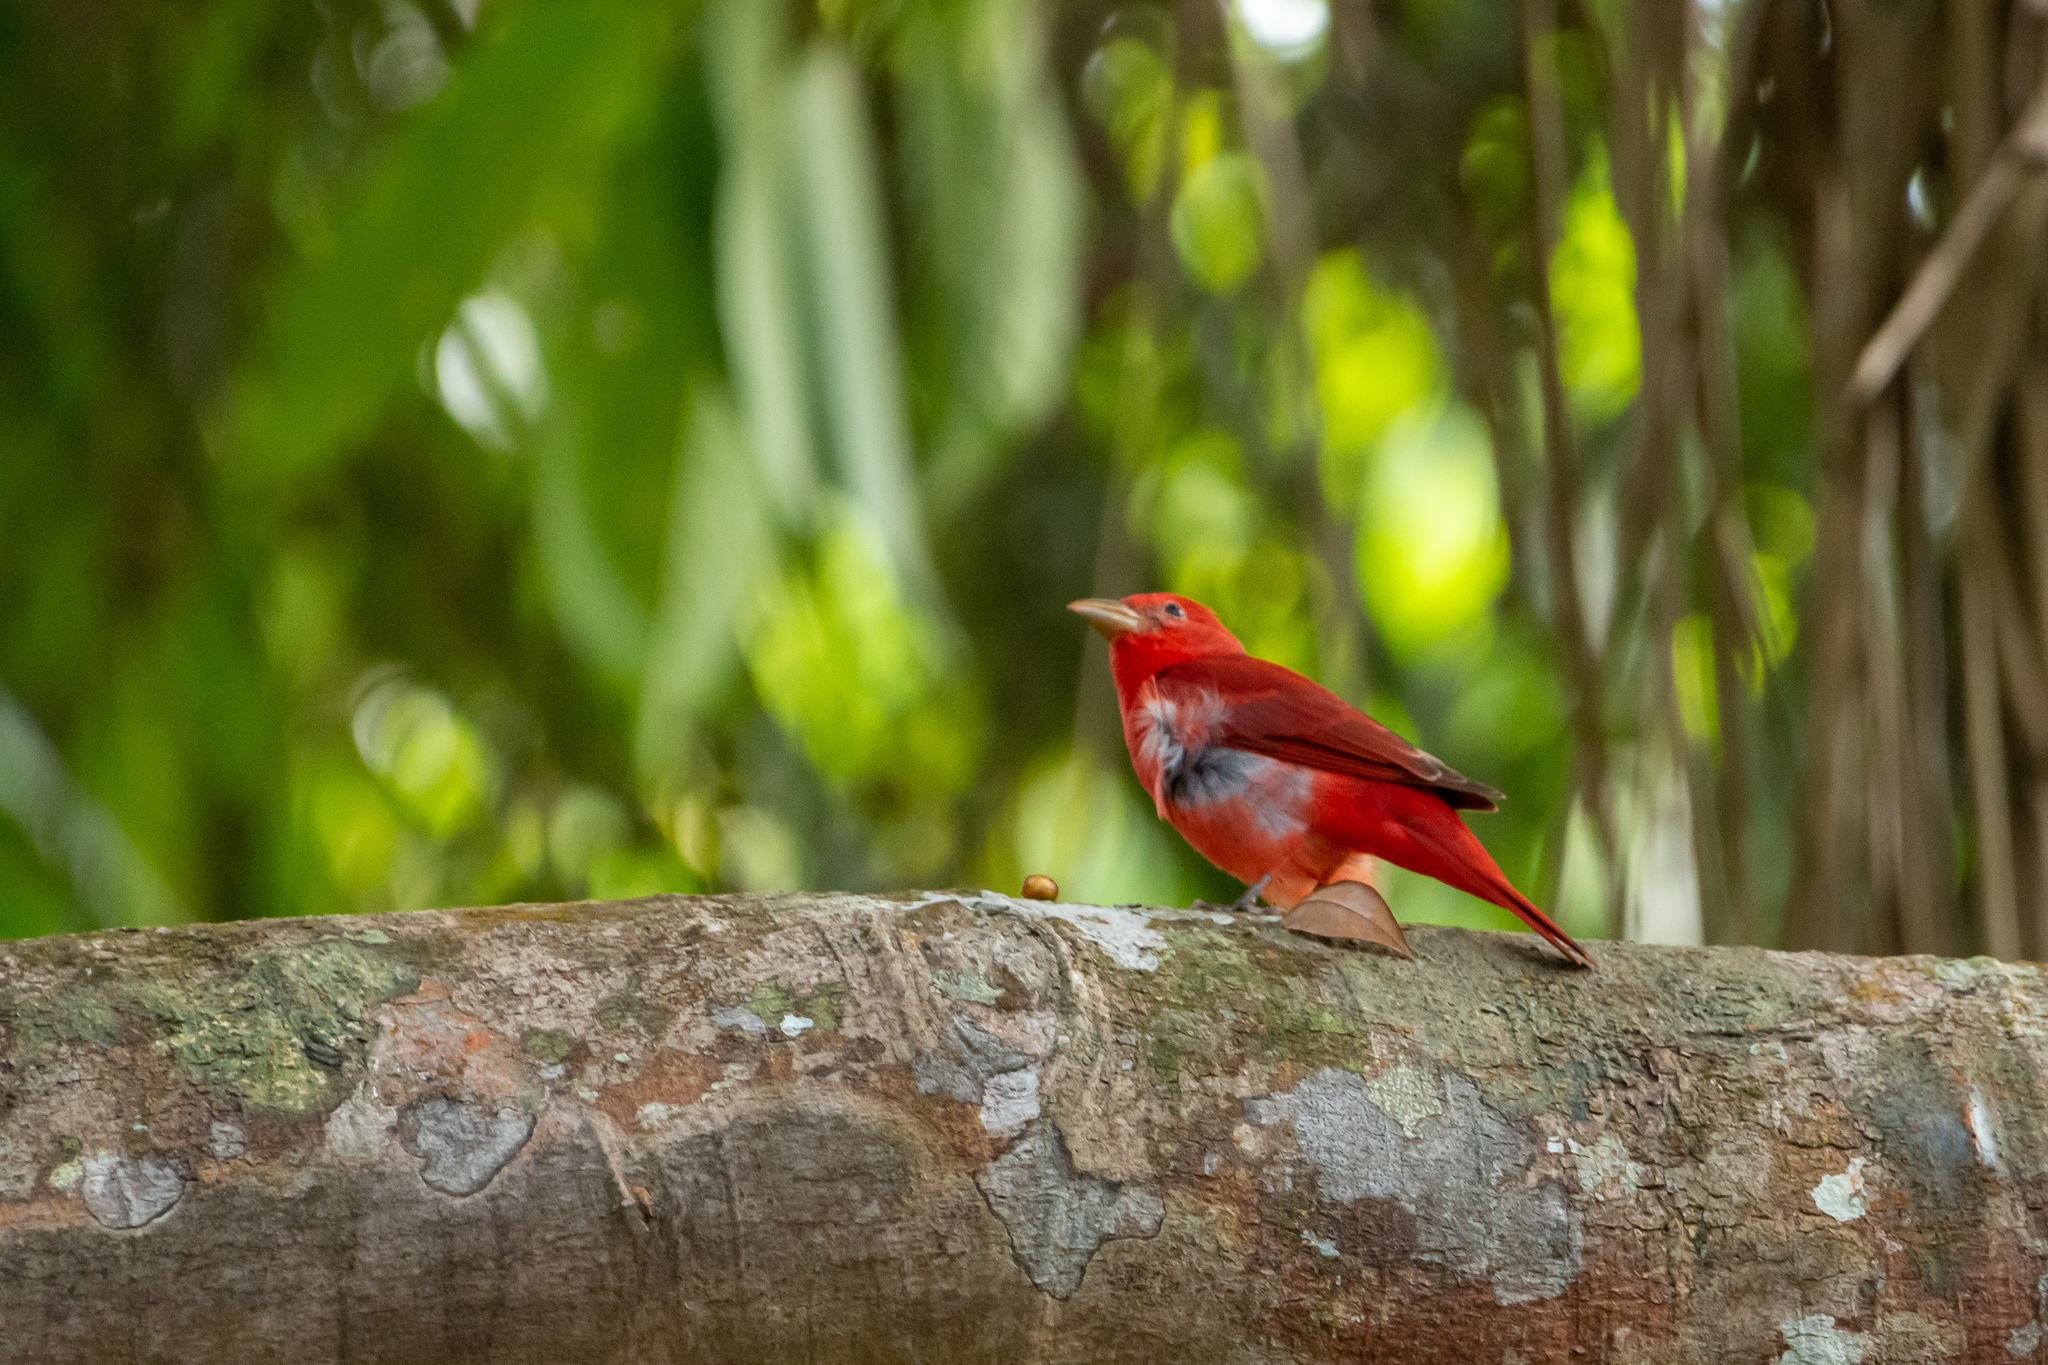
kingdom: Animalia
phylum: Chordata
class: Aves
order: Passeriformes
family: Cardinalidae
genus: Piranga
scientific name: Piranga rubra
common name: Summer tanager
